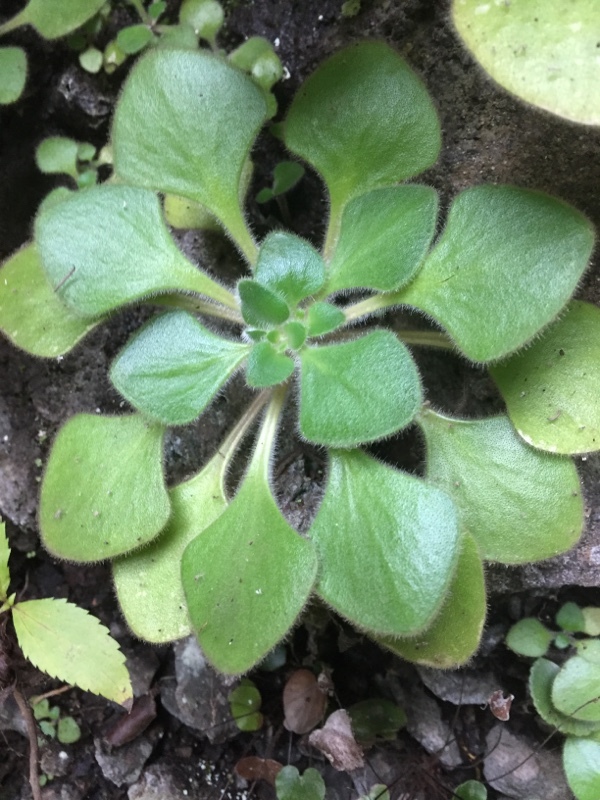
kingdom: Plantae
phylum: Tracheophyta
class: Magnoliopsida
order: Saxifragales
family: Crassulaceae
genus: Aichryson
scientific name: Aichryson laxum
